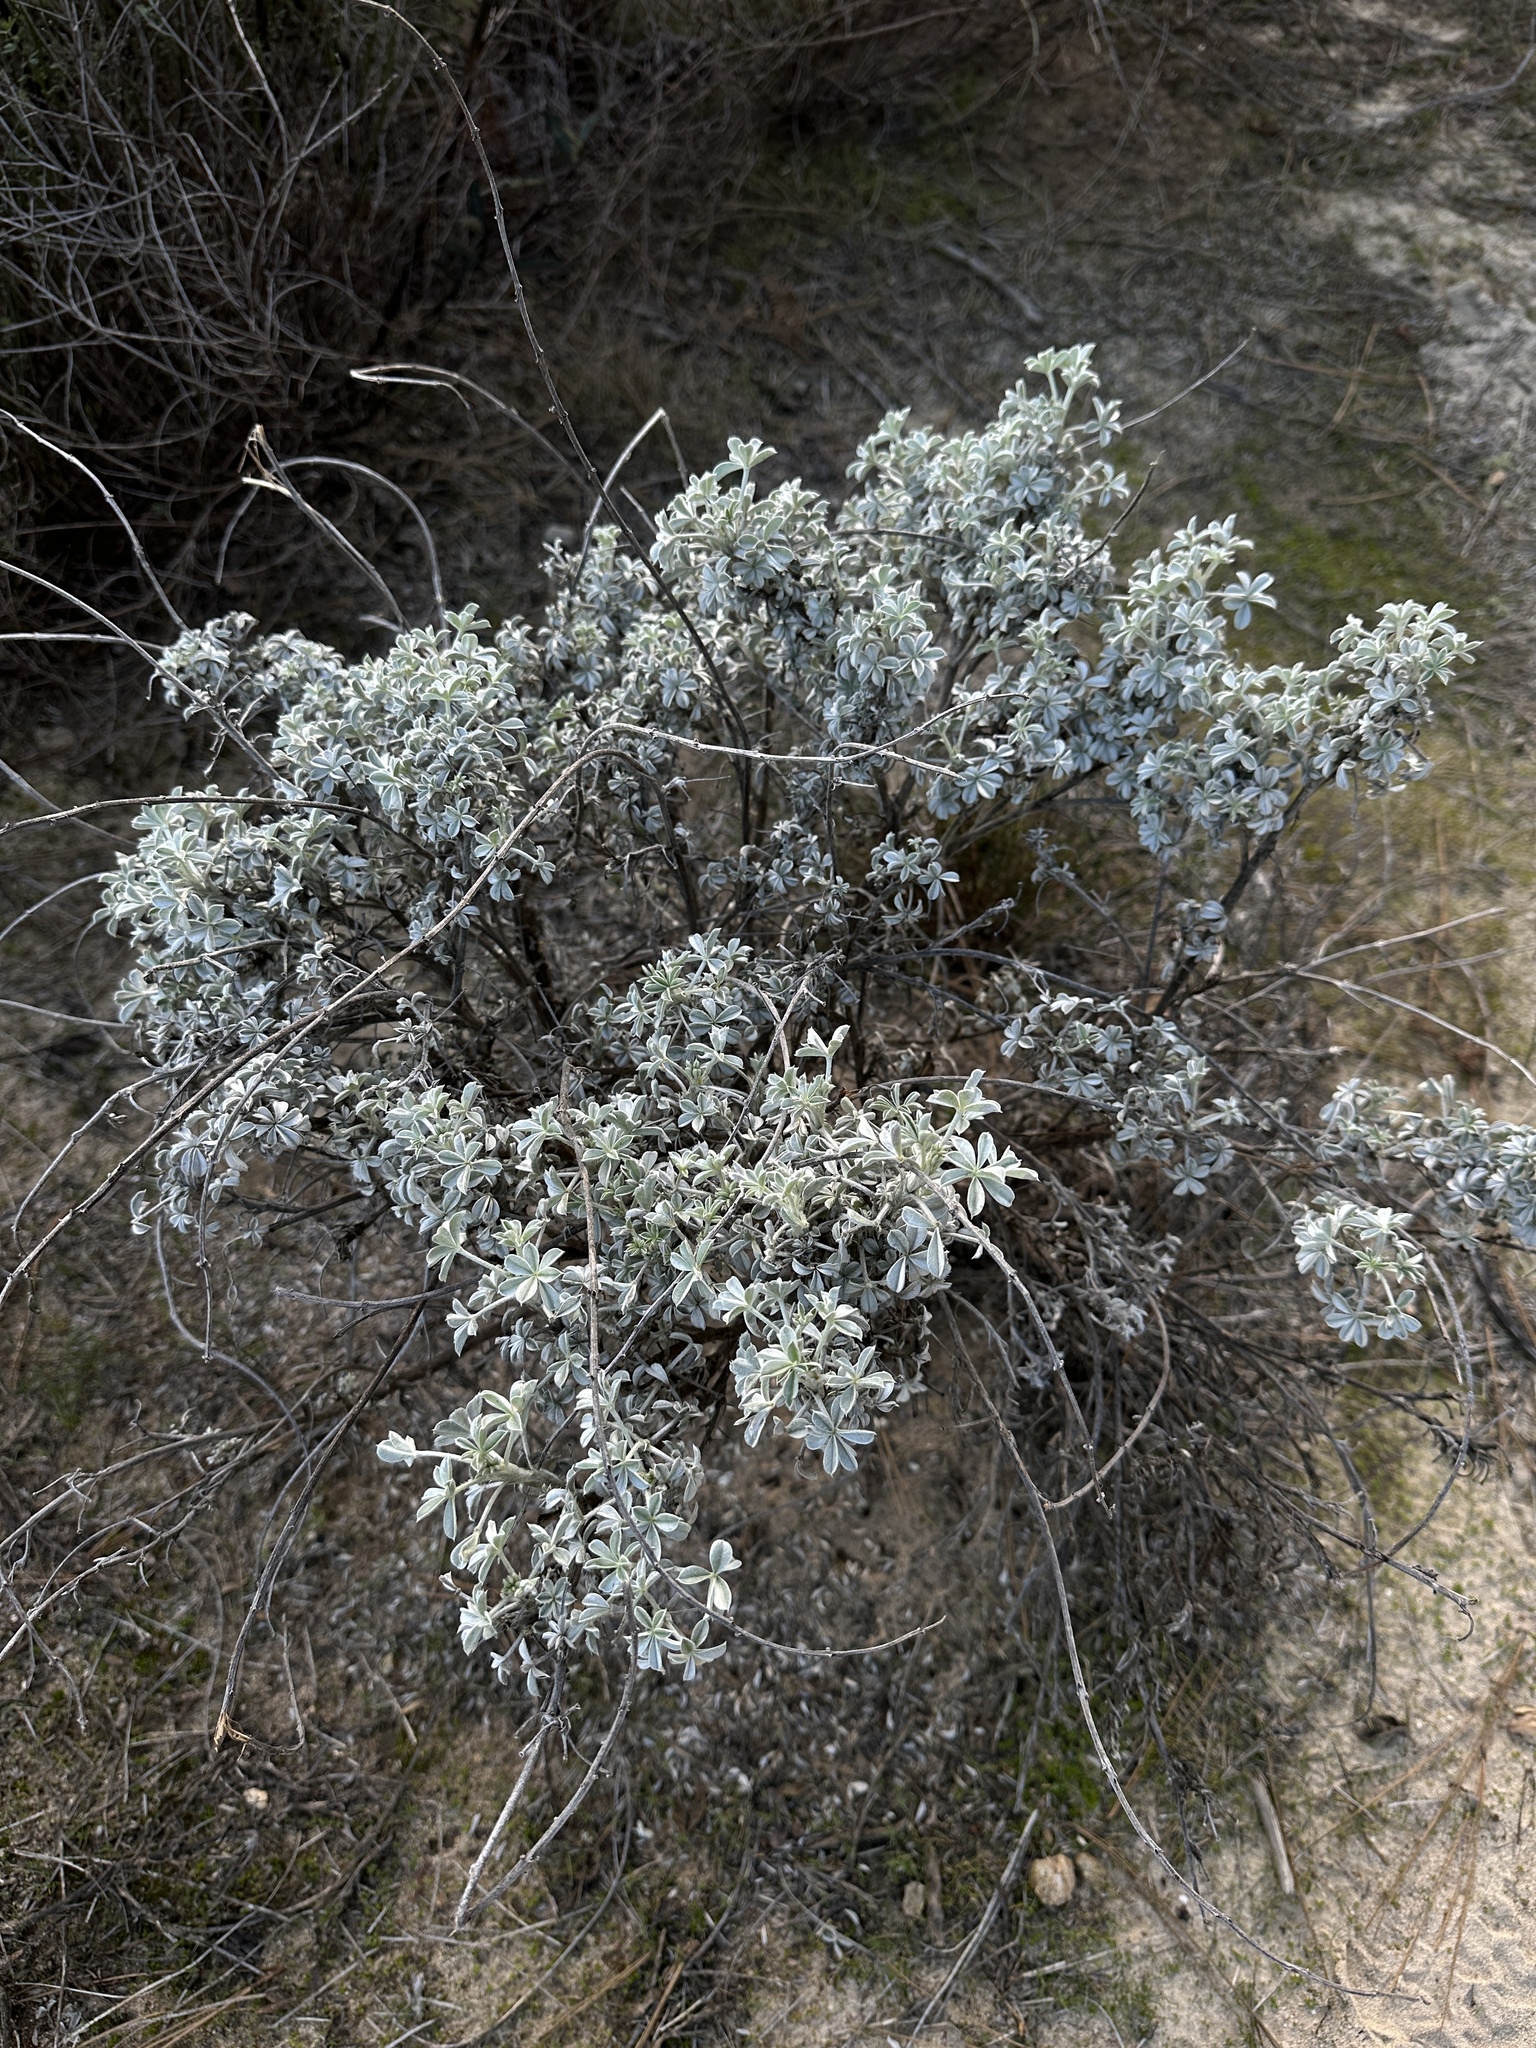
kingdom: Plantae
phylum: Tracheophyta
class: Magnoliopsida
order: Fabales
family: Fabaceae
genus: Lupinus
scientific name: Lupinus albifrons
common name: Foothill lupine
